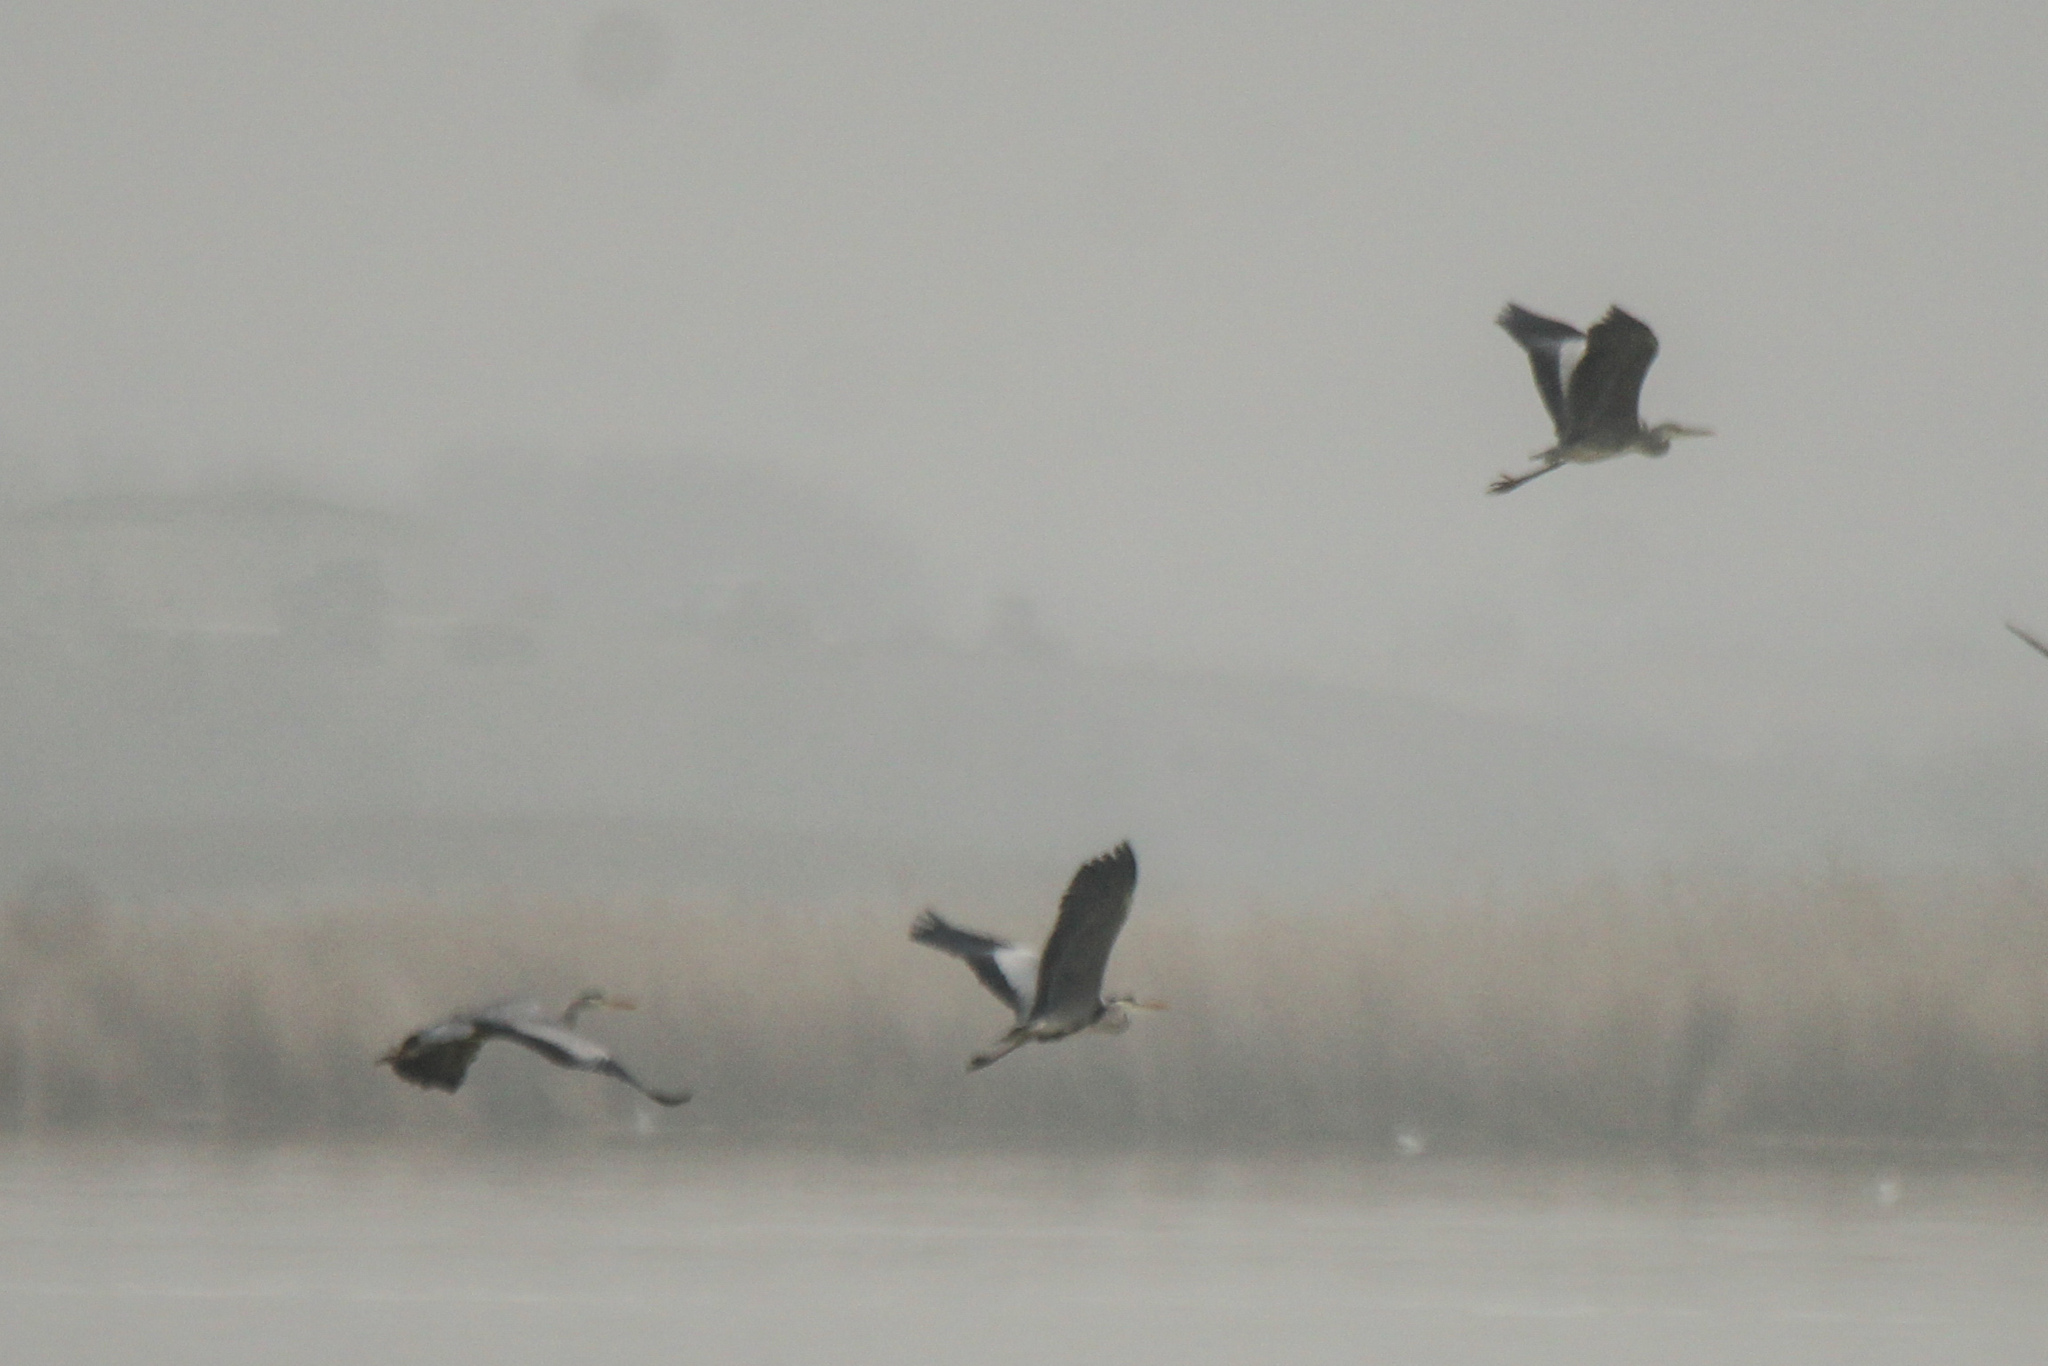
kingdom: Animalia
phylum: Chordata
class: Aves
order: Pelecaniformes
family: Ardeidae
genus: Ardea
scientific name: Ardea cinerea
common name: Grey heron
